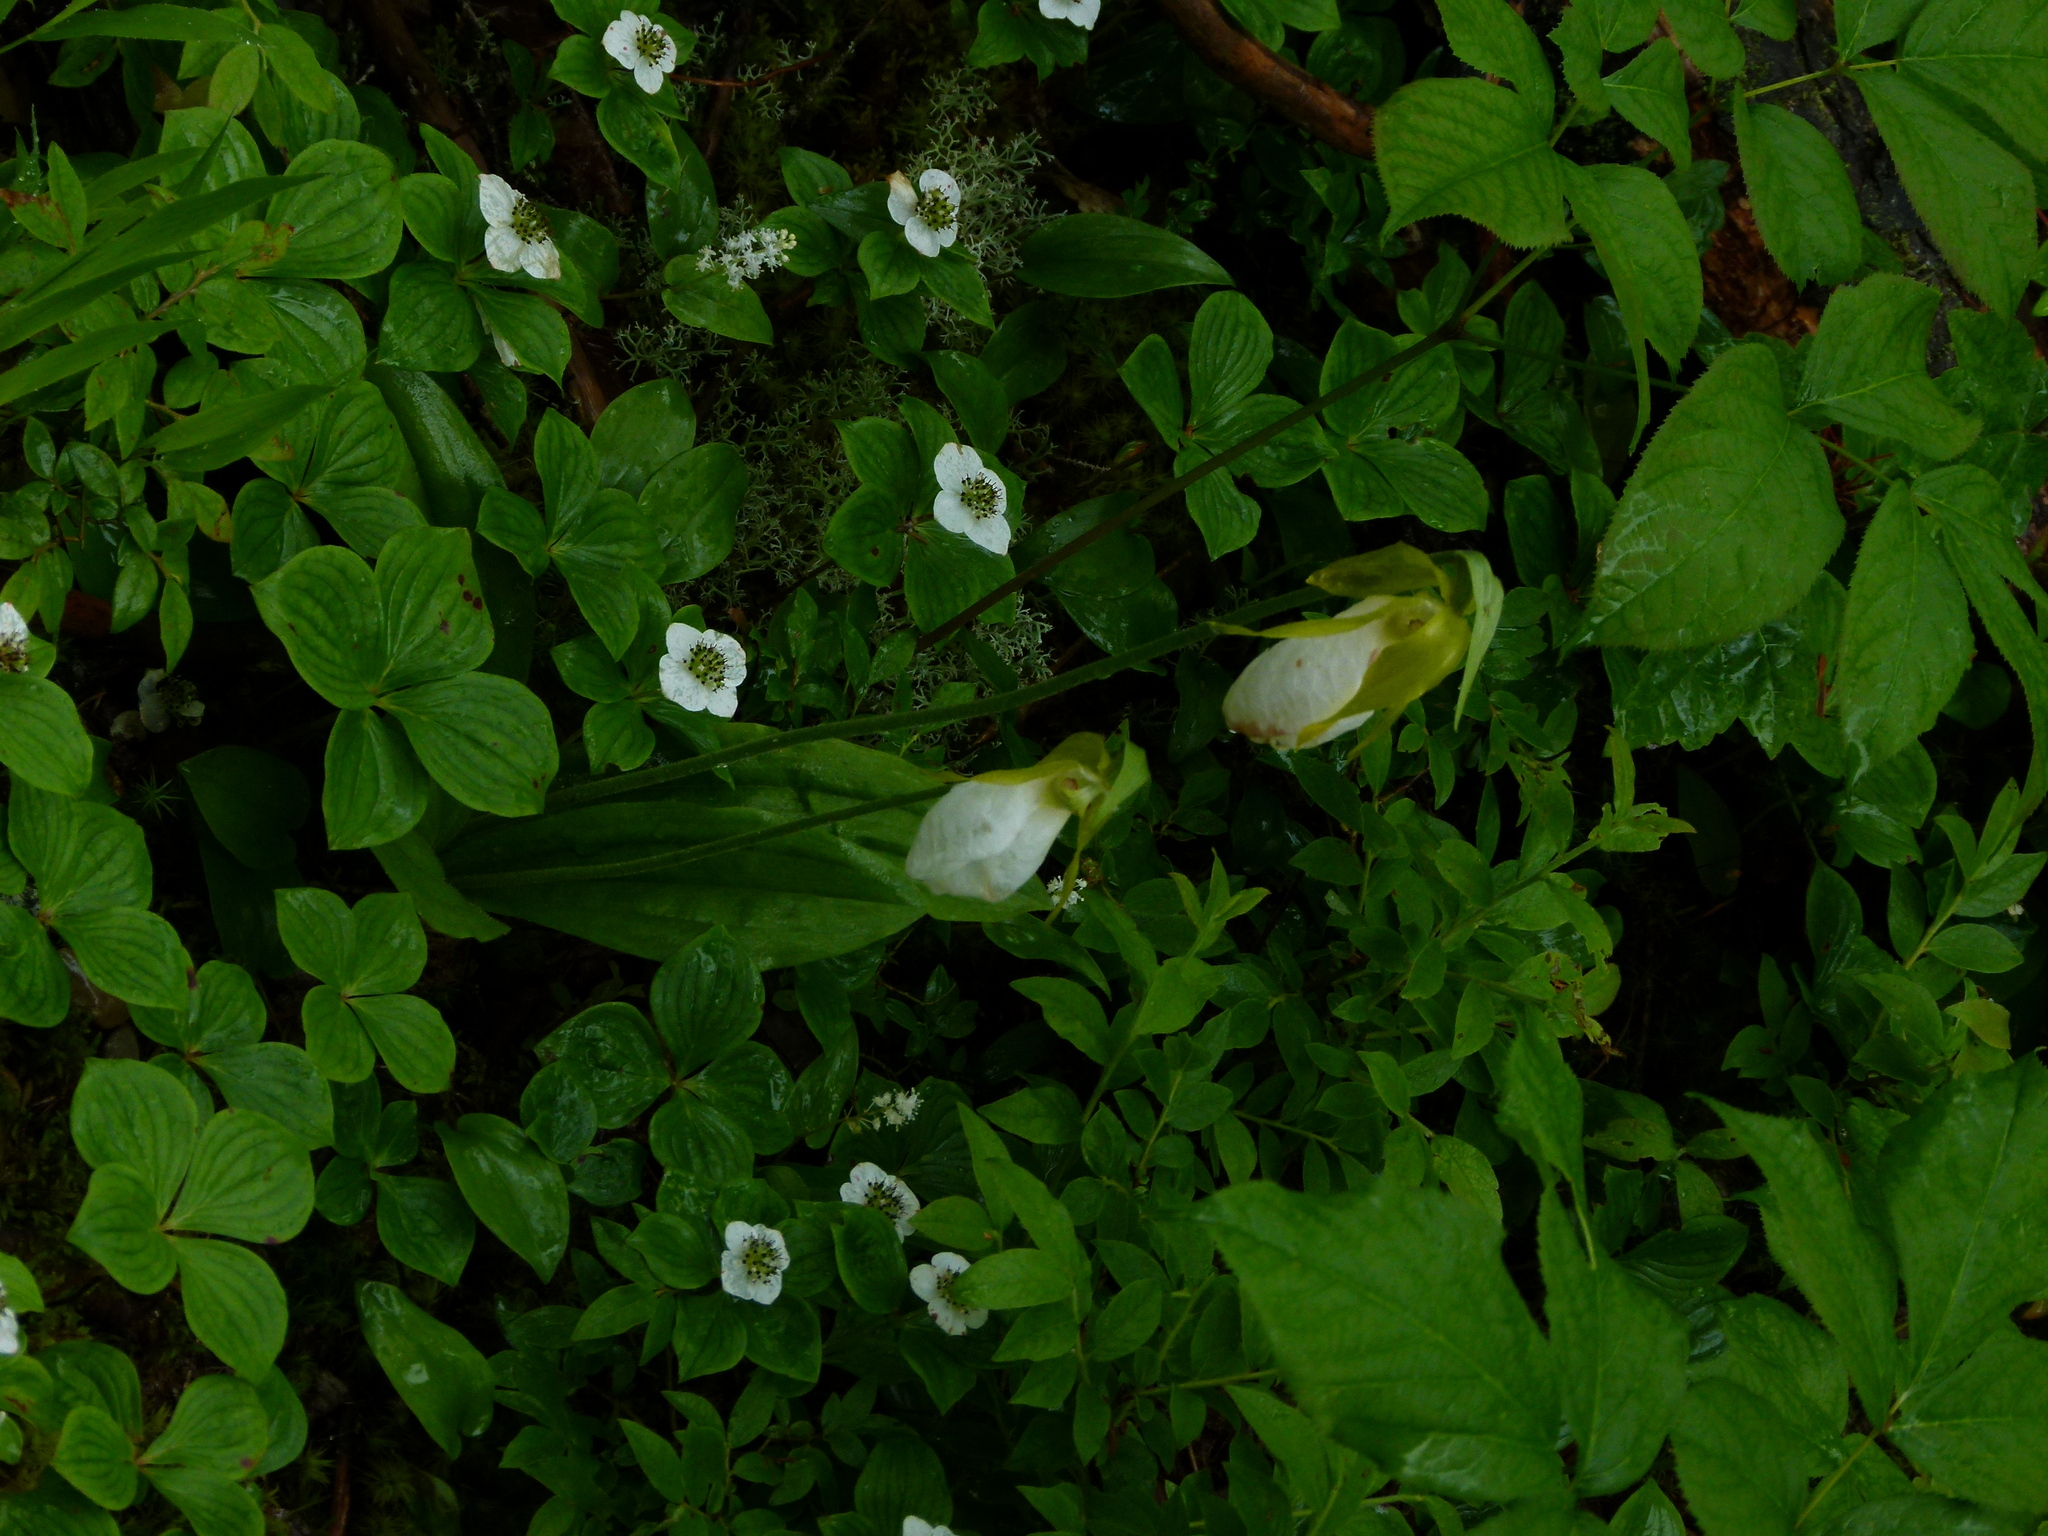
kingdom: Plantae
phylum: Tracheophyta
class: Liliopsida
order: Asparagales
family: Orchidaceae
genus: Cypripedium
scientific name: Cypripedium acaule
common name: Pink lady's-slipper
